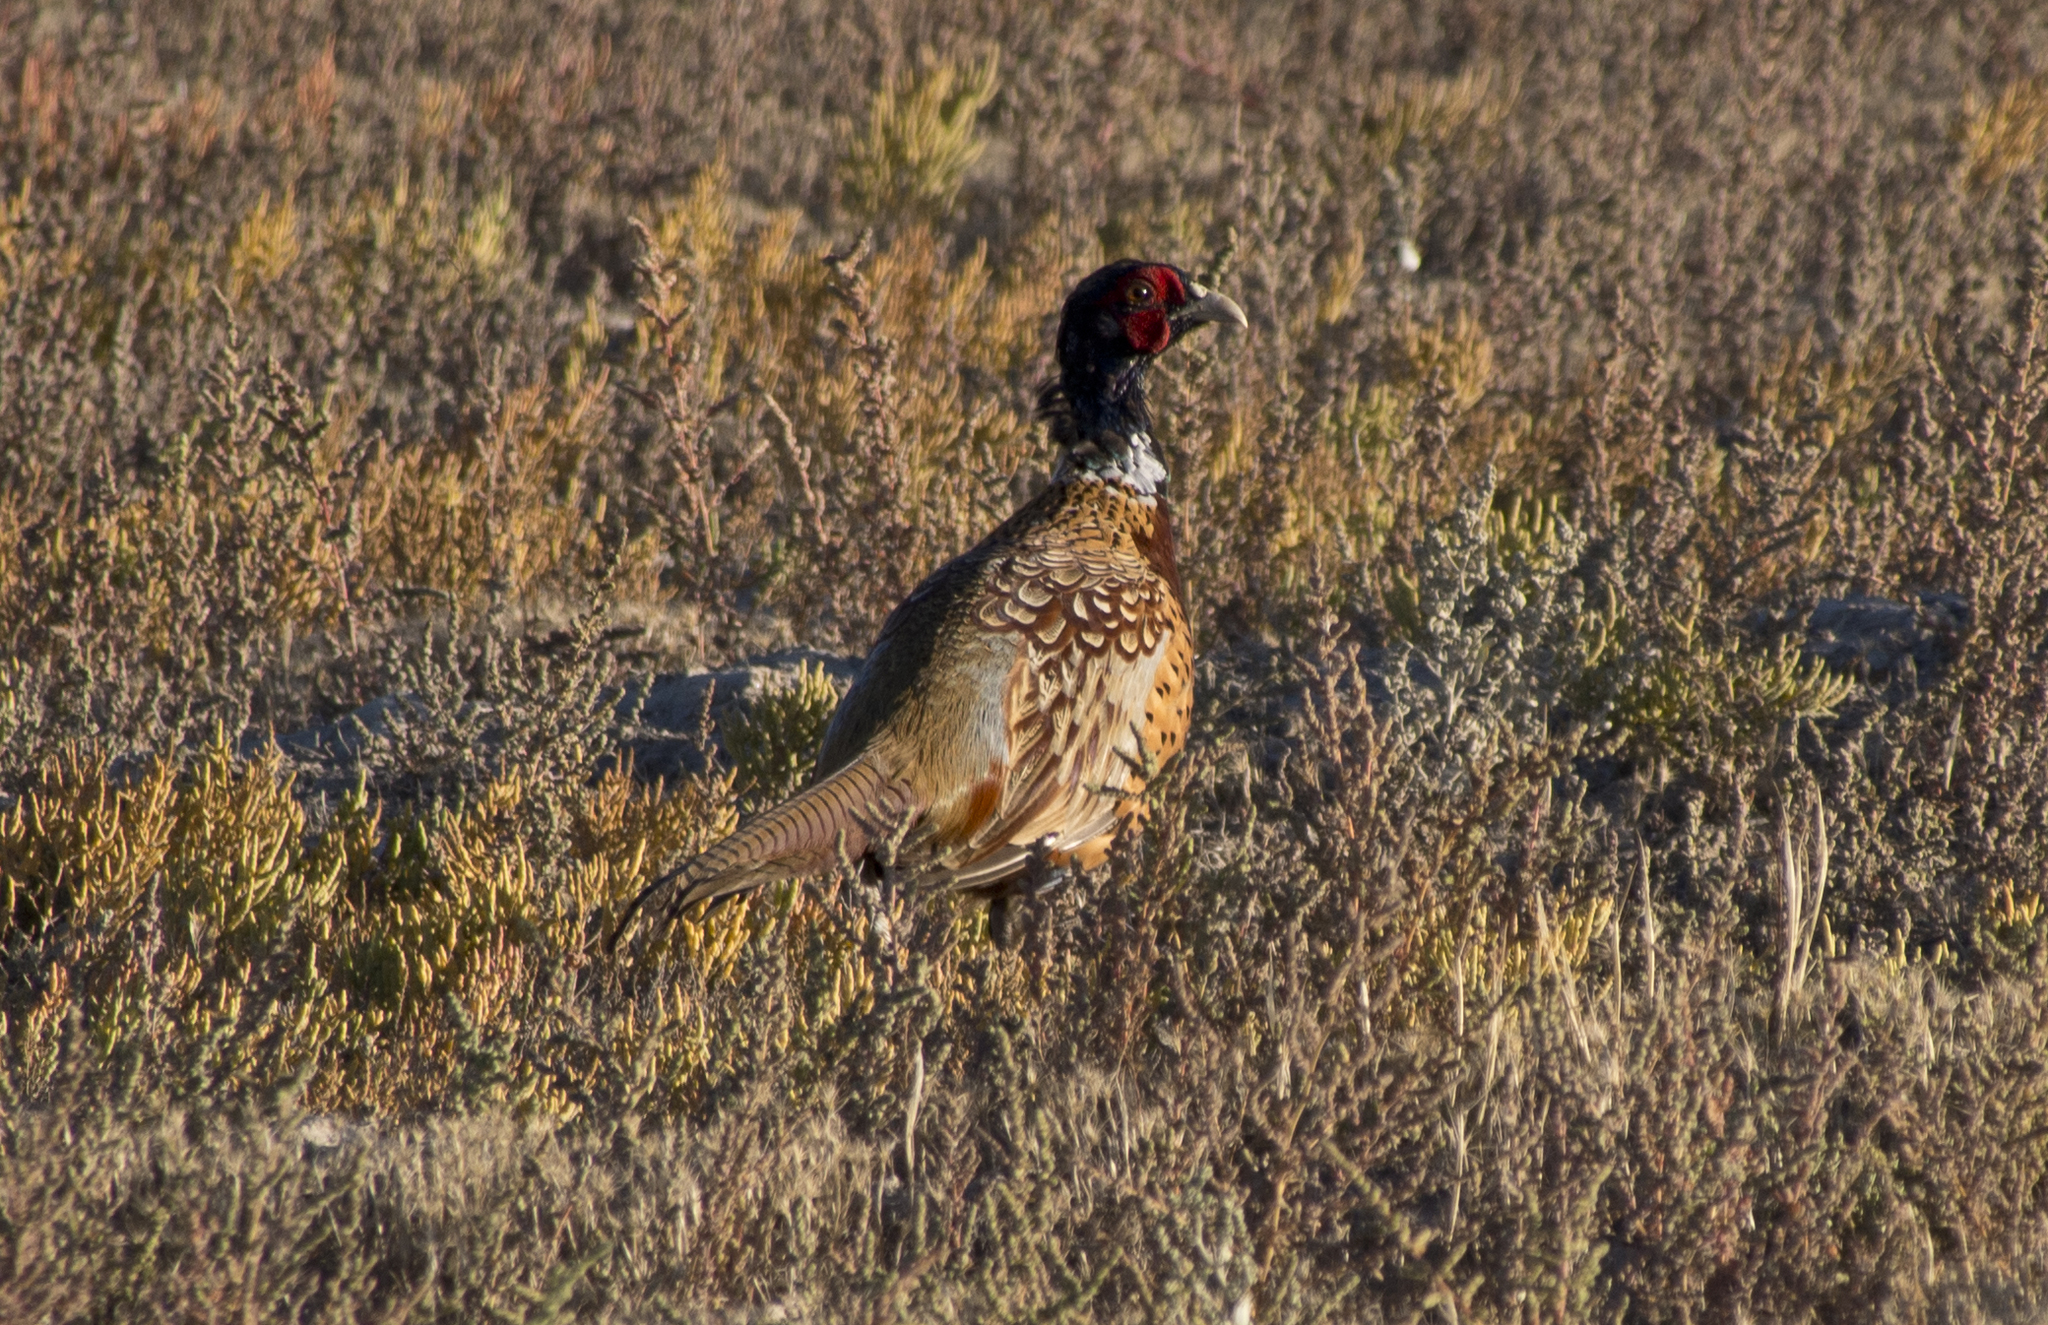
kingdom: Animalia
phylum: Chordata
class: Aves
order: Galliformes
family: Phasianidae
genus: Phasianus
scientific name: Phasianus colchicus
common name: Common pheasant
